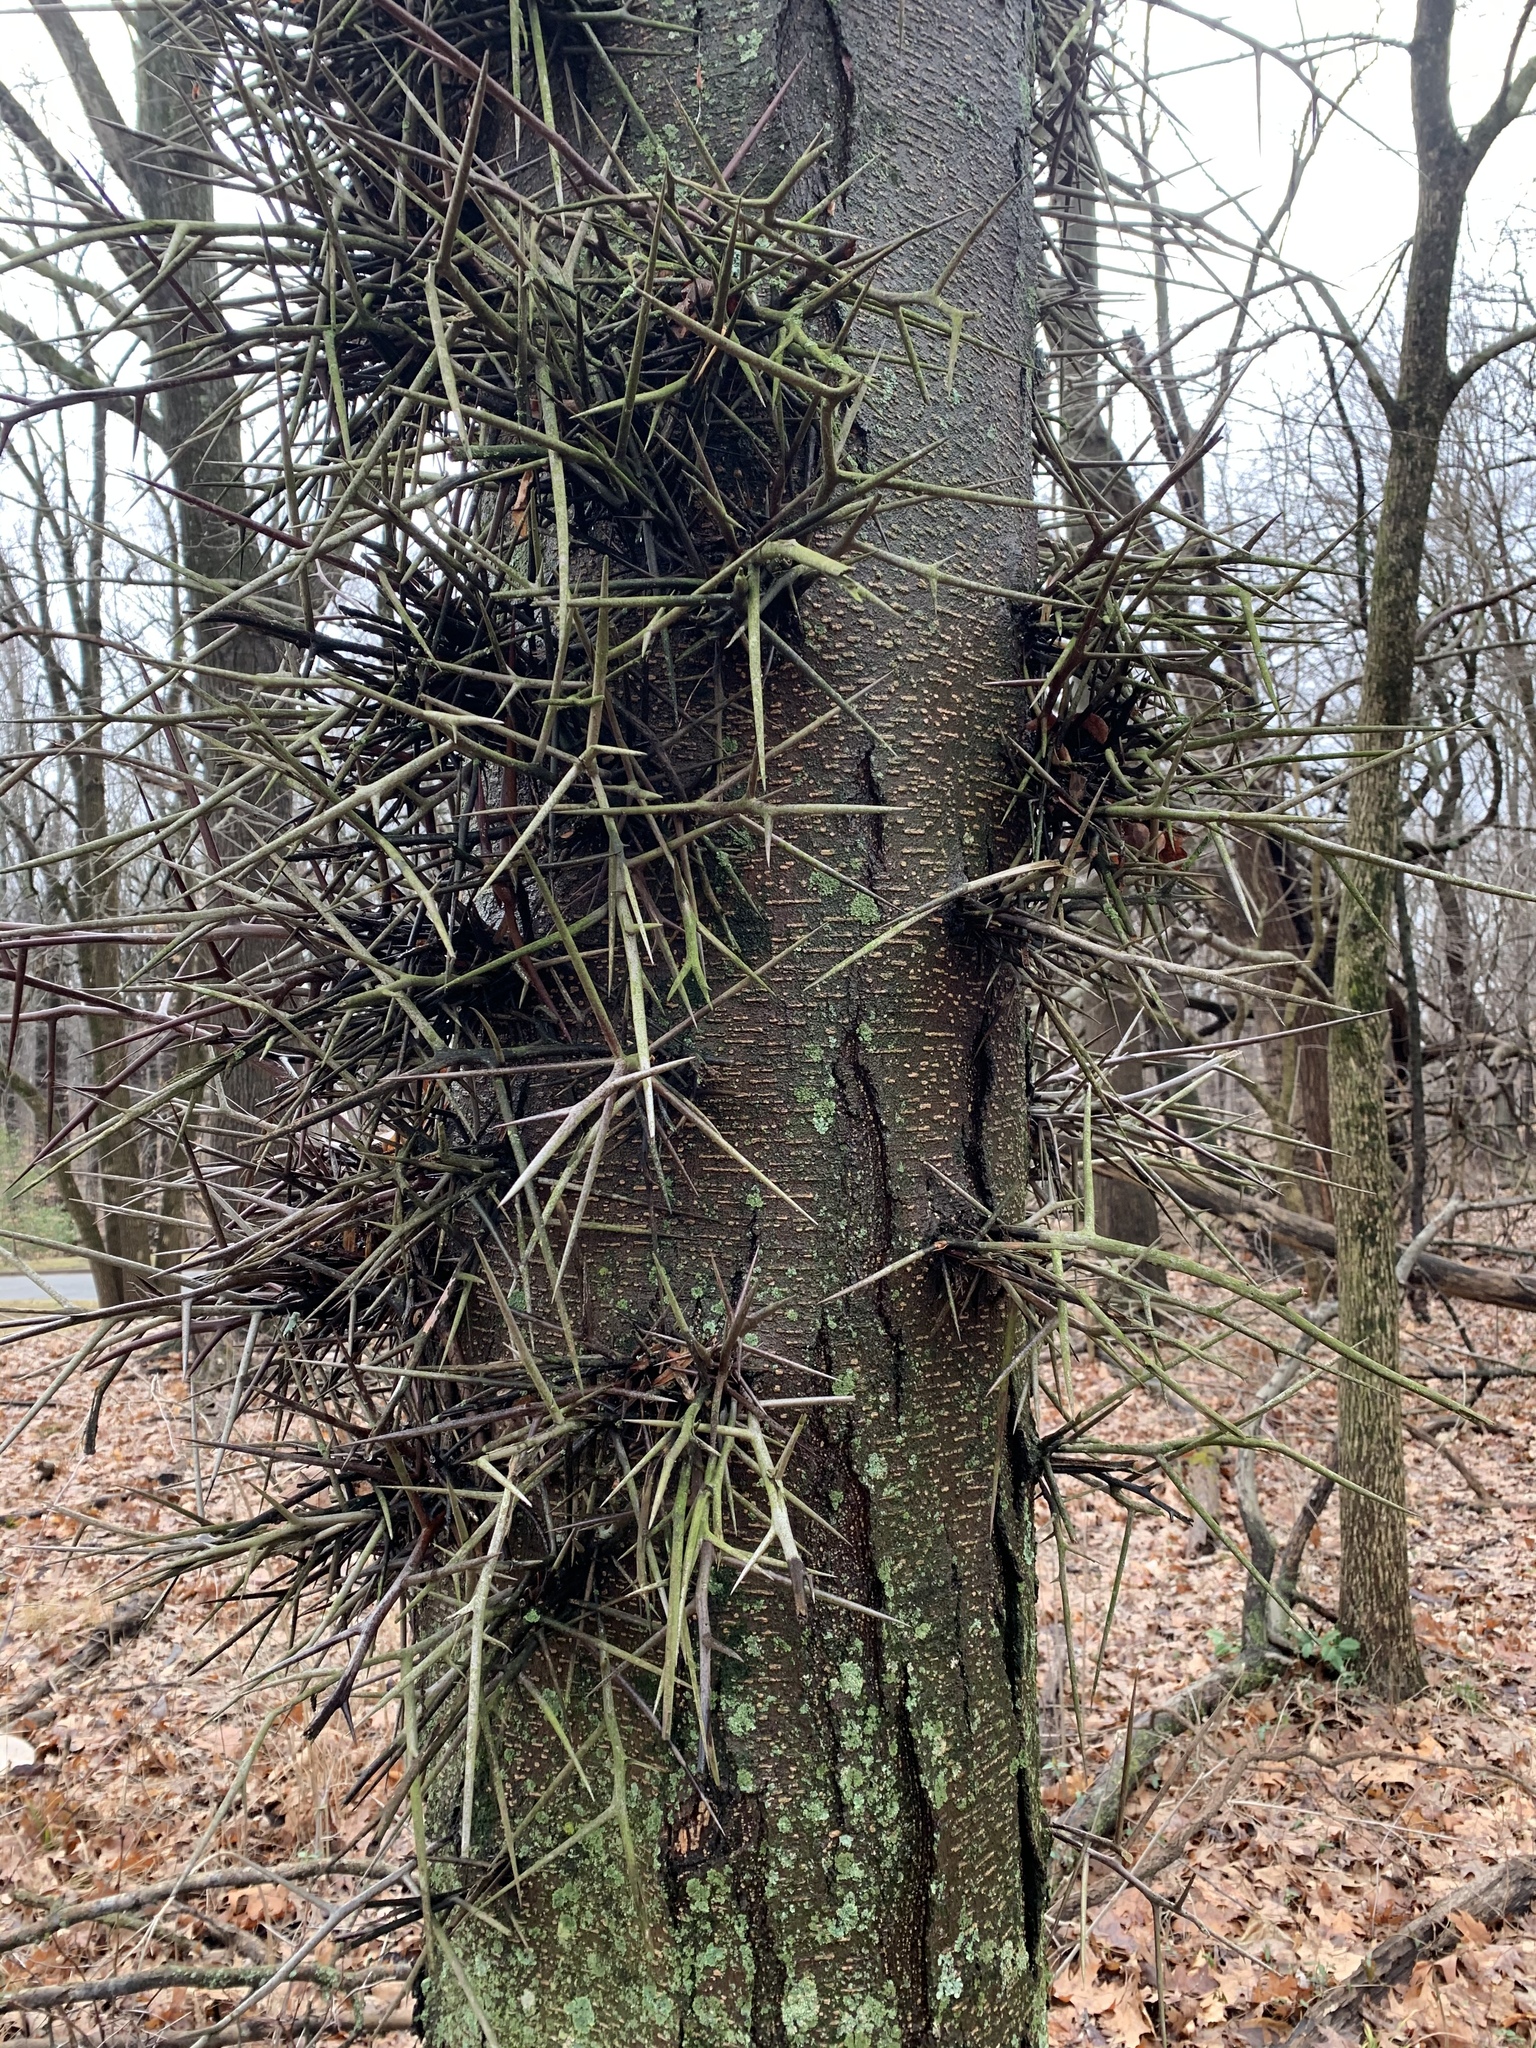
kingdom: Plantae
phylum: Tracheophyta
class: Magnoliopsida
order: Fabales
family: Fabaceae
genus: Gleditsia
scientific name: Gleditsia triacanthos
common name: Common honeylocust
